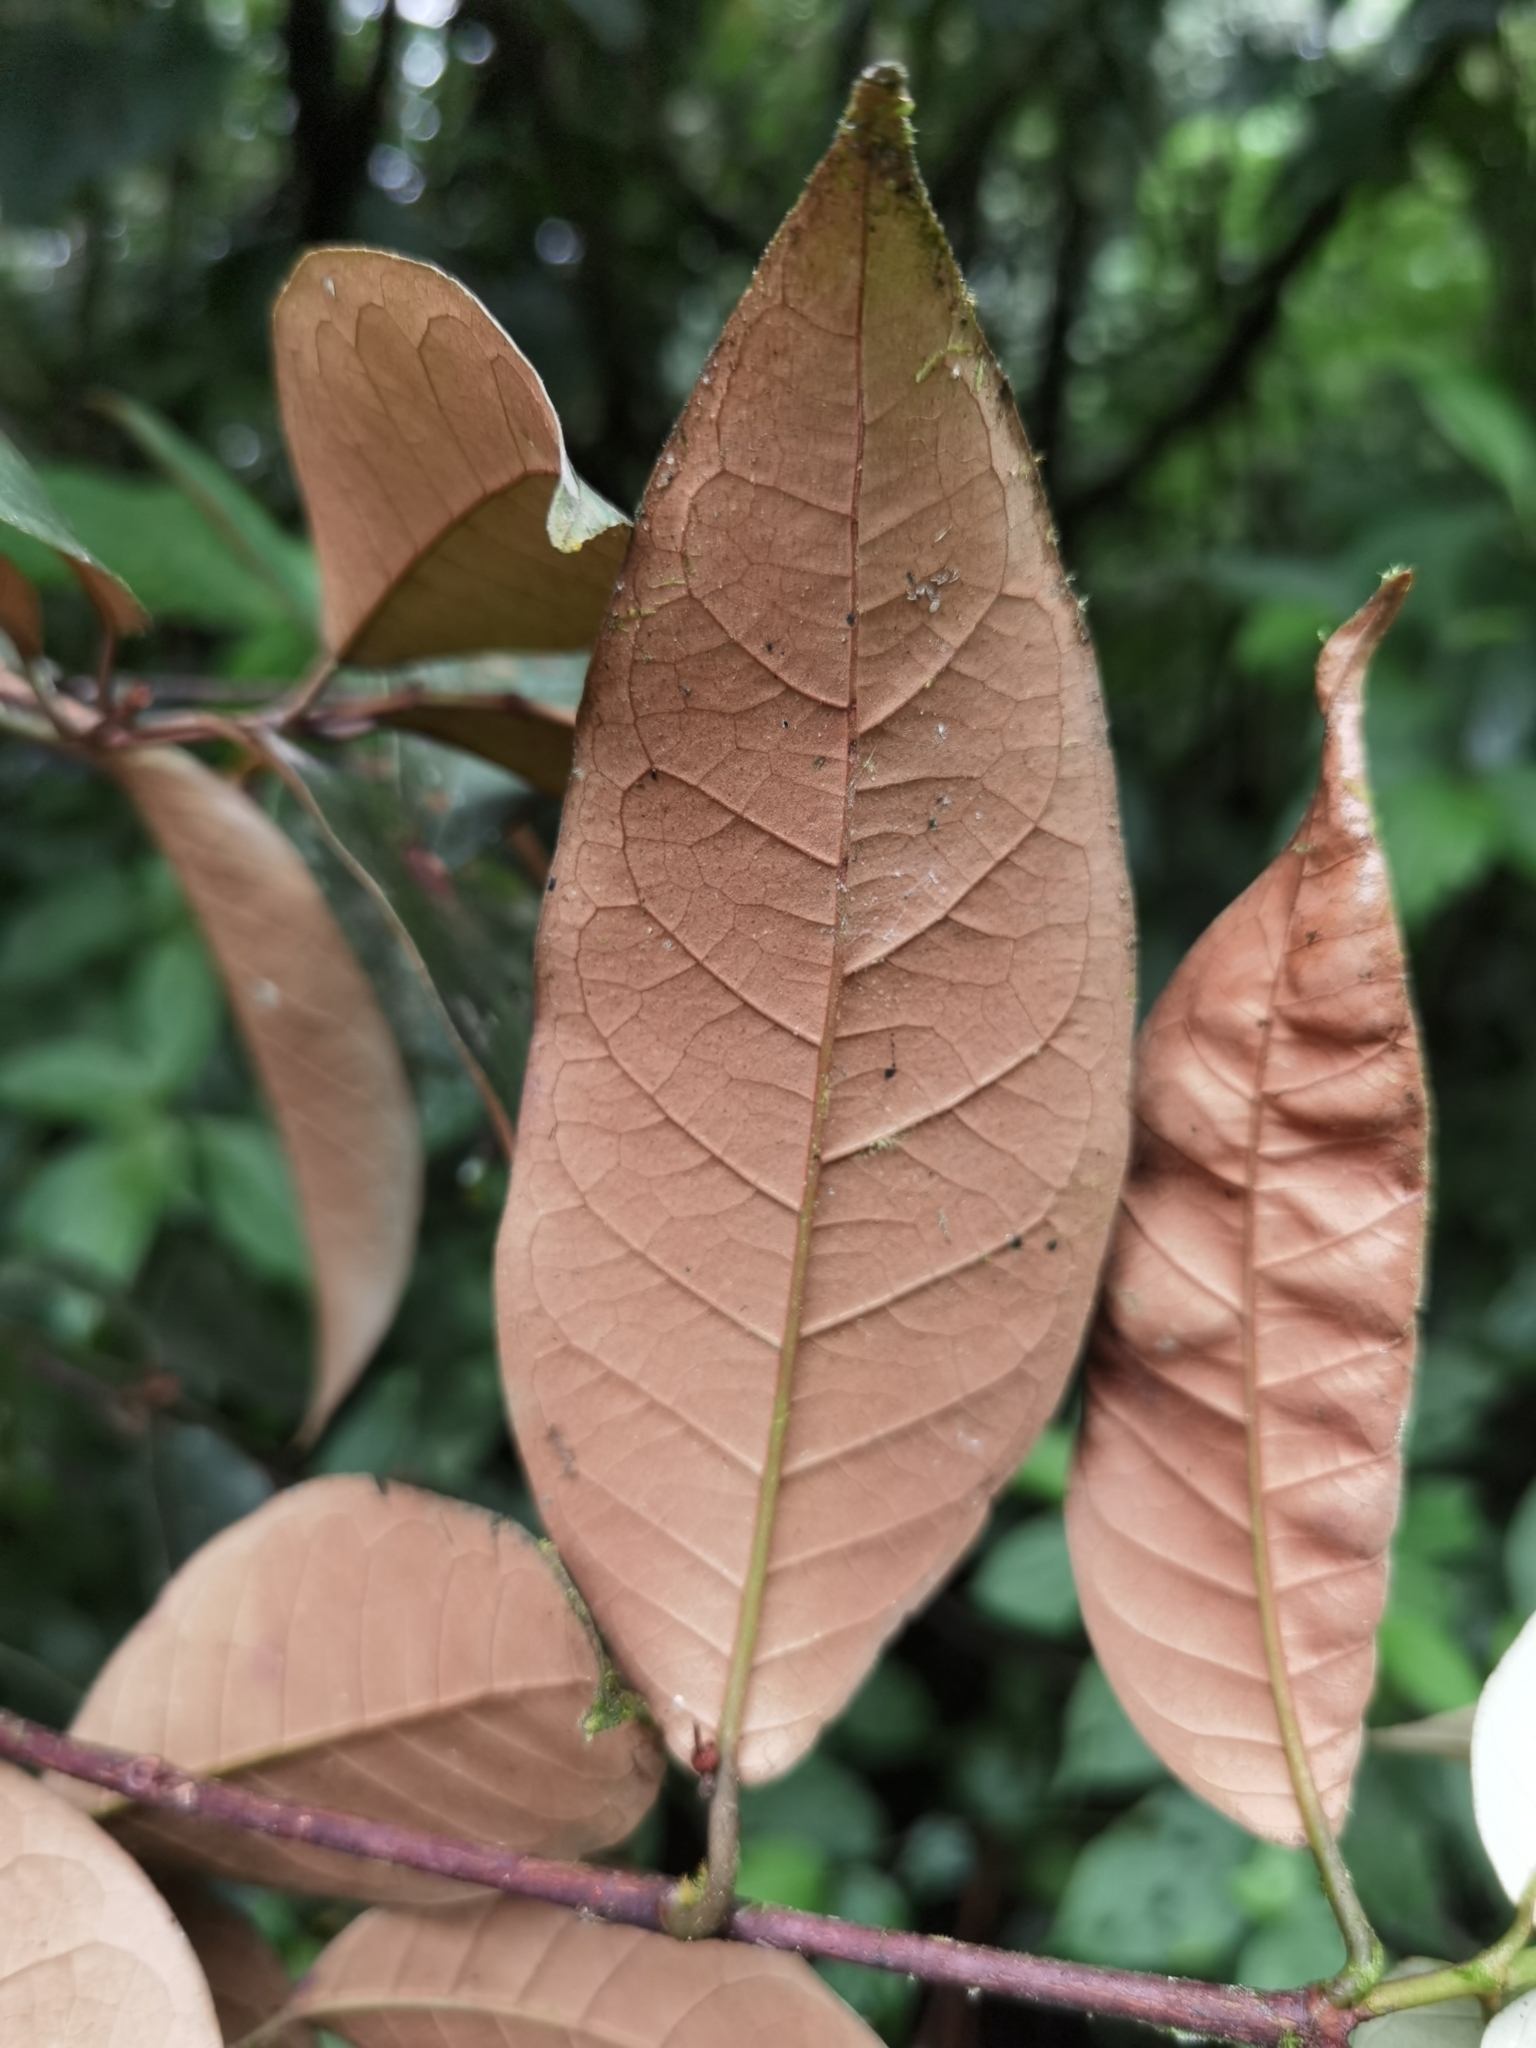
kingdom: Plantae
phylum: Tracheophyta
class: Magnoliopsida
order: Malpighiales
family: Hypericaceae
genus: Vismia
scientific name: Vismia billbergiana
